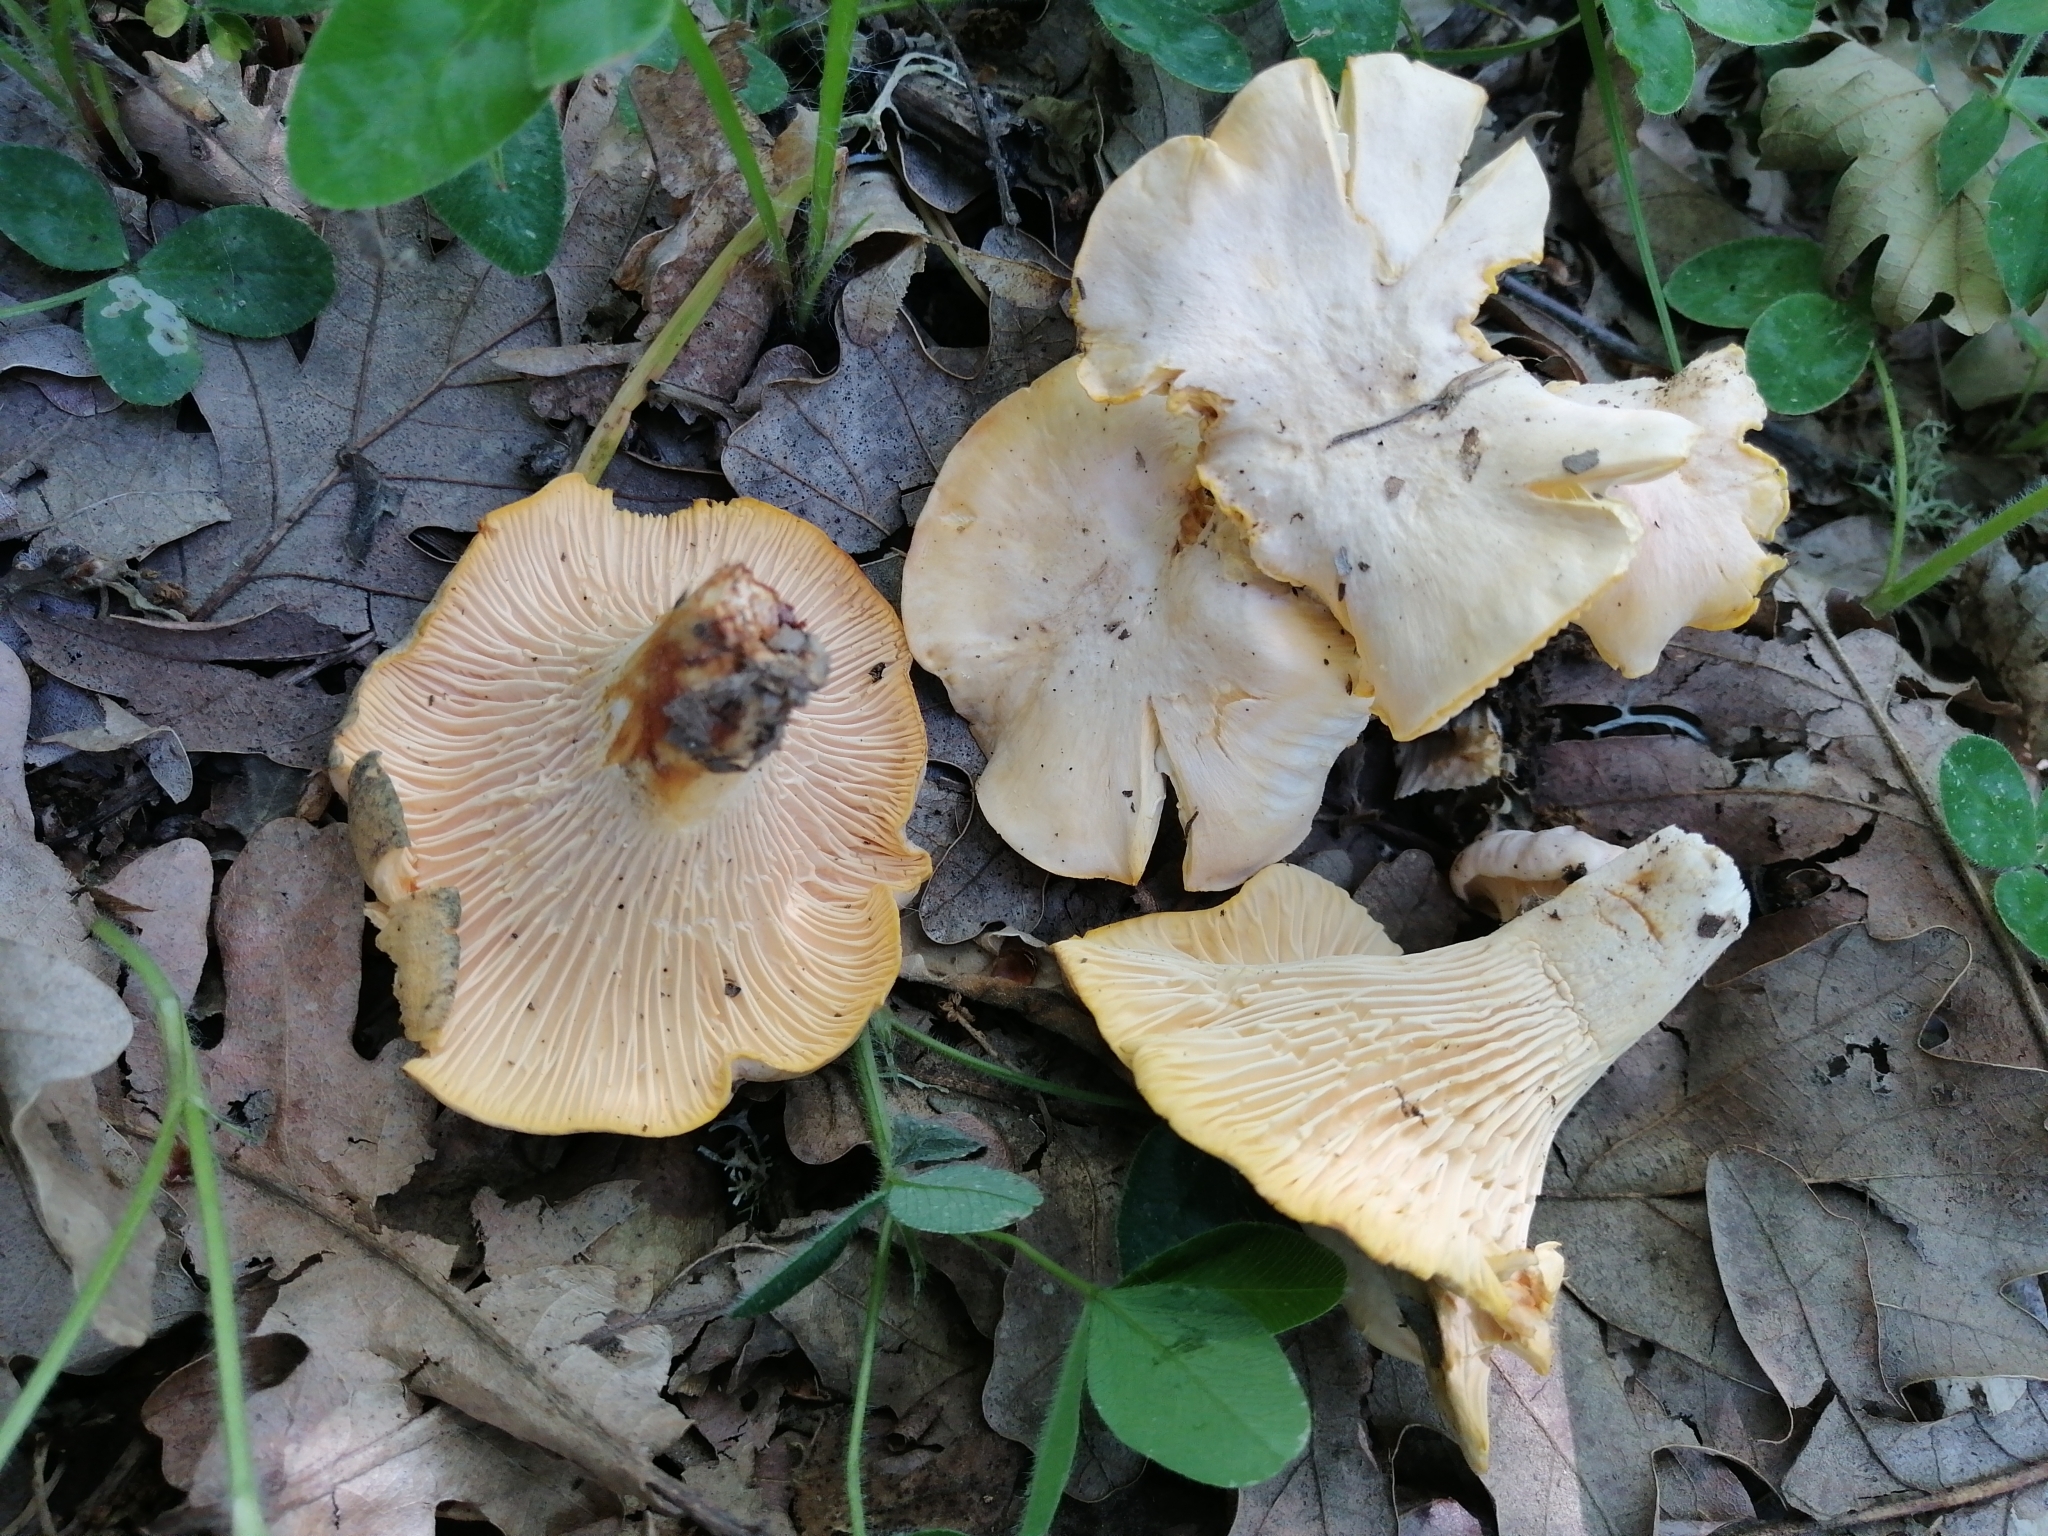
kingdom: Fungi
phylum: Basidiomycota
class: Agaricomycetes
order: Cantharellales
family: Hydnaceae
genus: Cantharellus
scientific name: Cantharellus pallens
